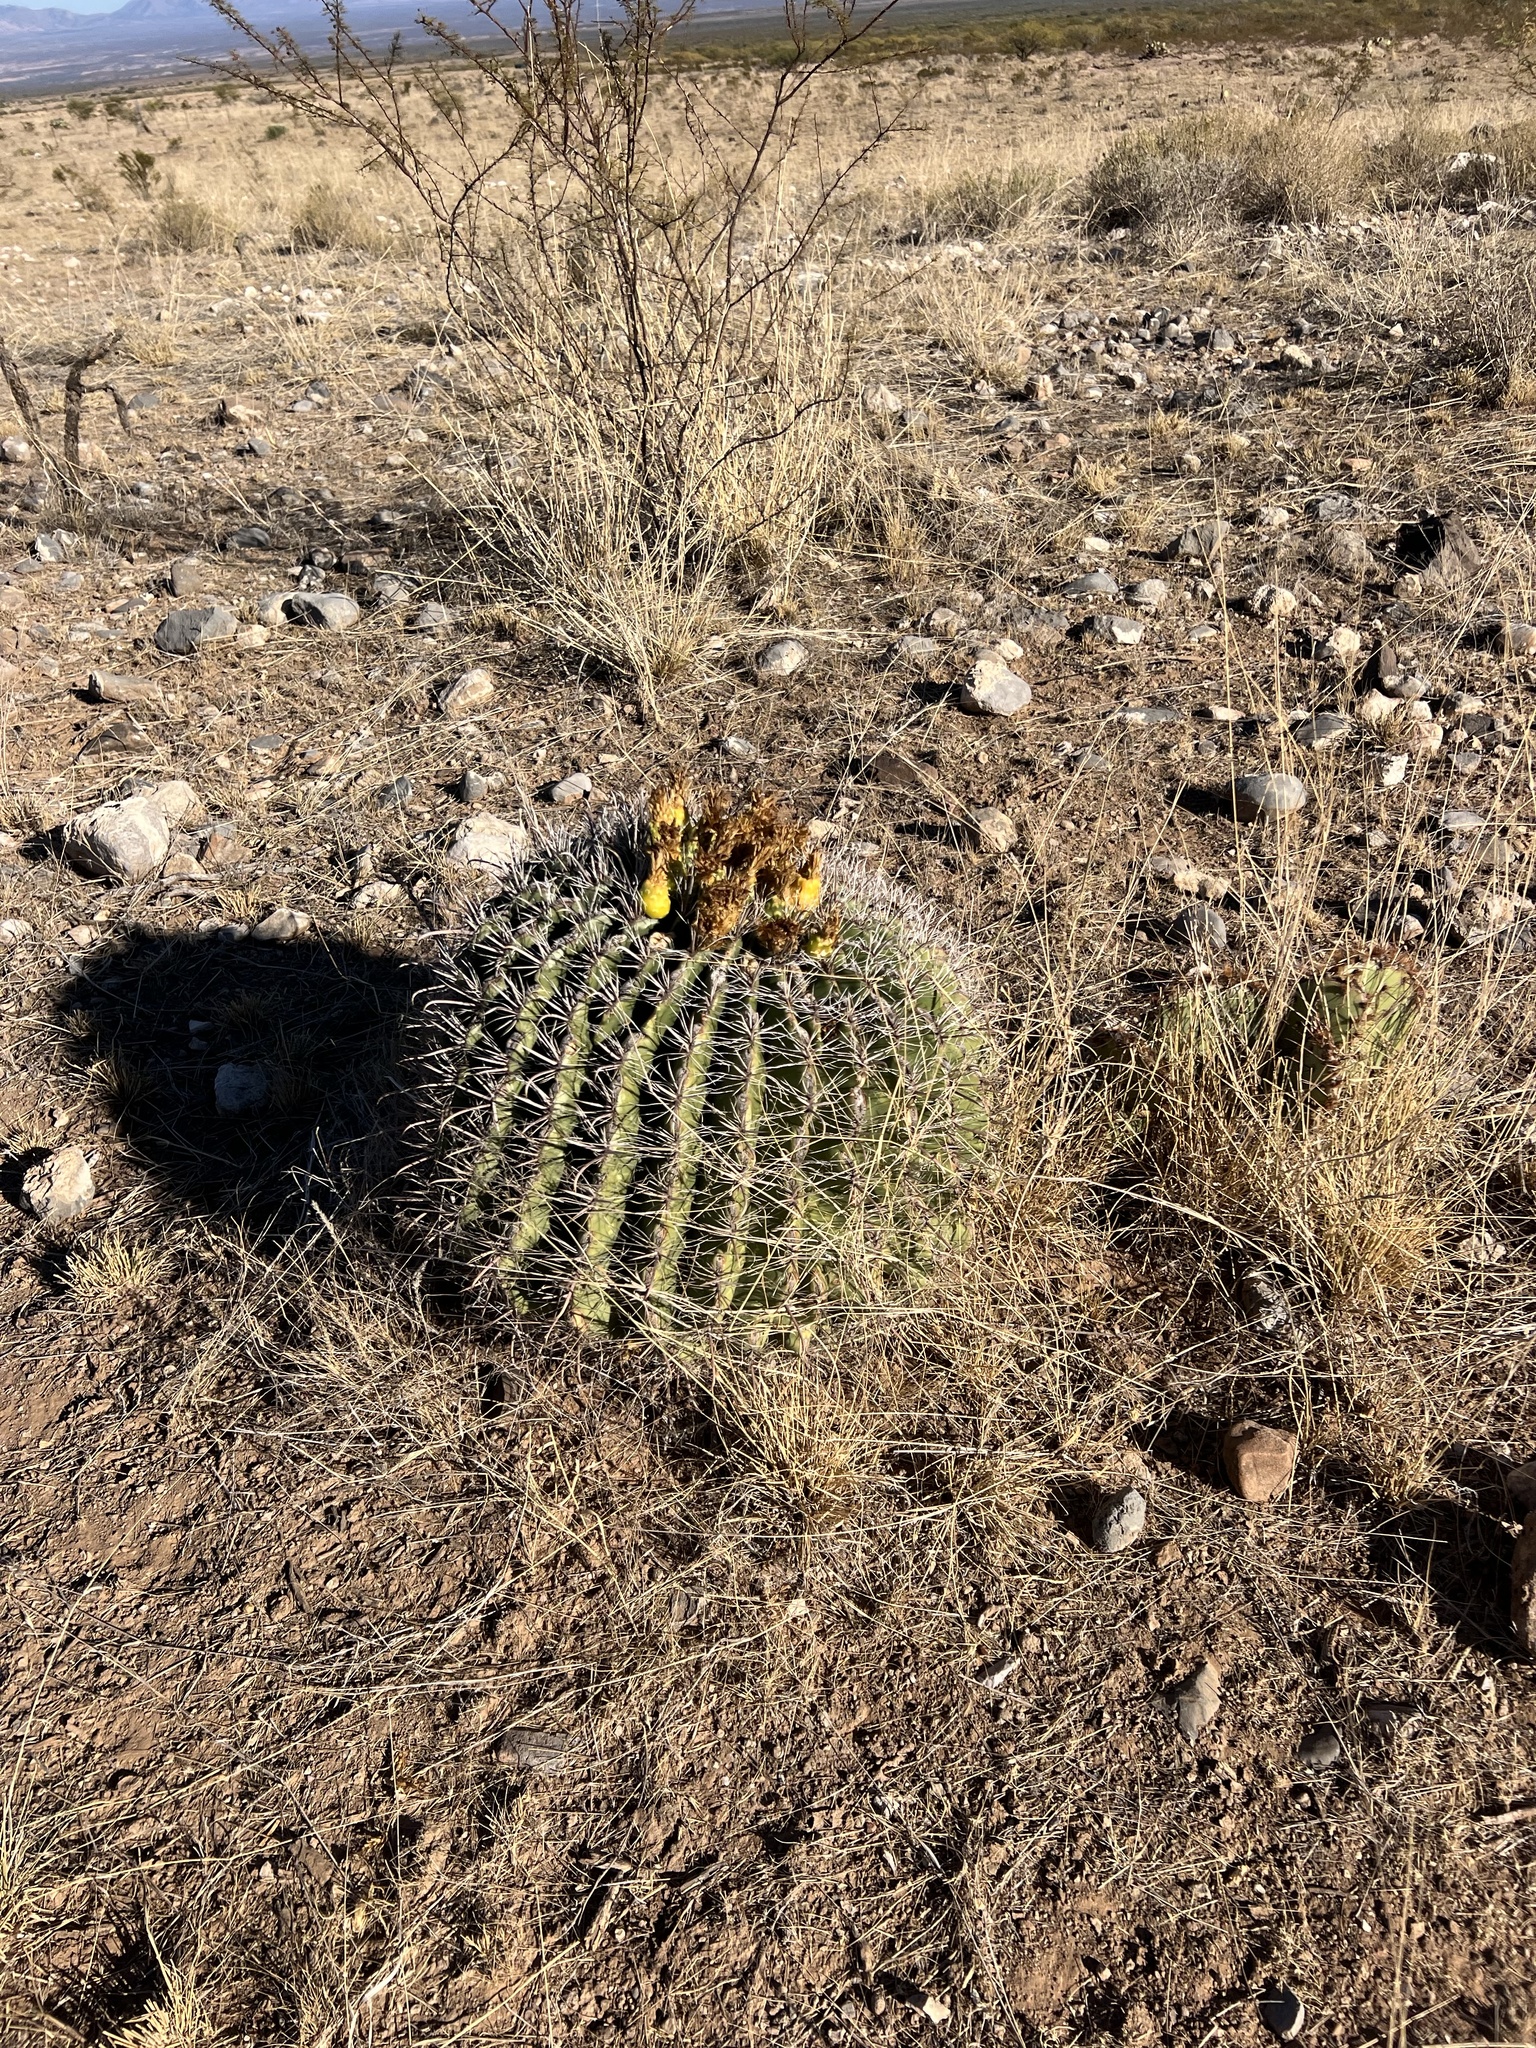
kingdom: Plantae
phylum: Tracheophyta
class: Magnoliopsida
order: Caryophyllales
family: Cactaceae
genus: Ferocactus
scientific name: Ferocactus wislizeni
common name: Candy barrel cactus
